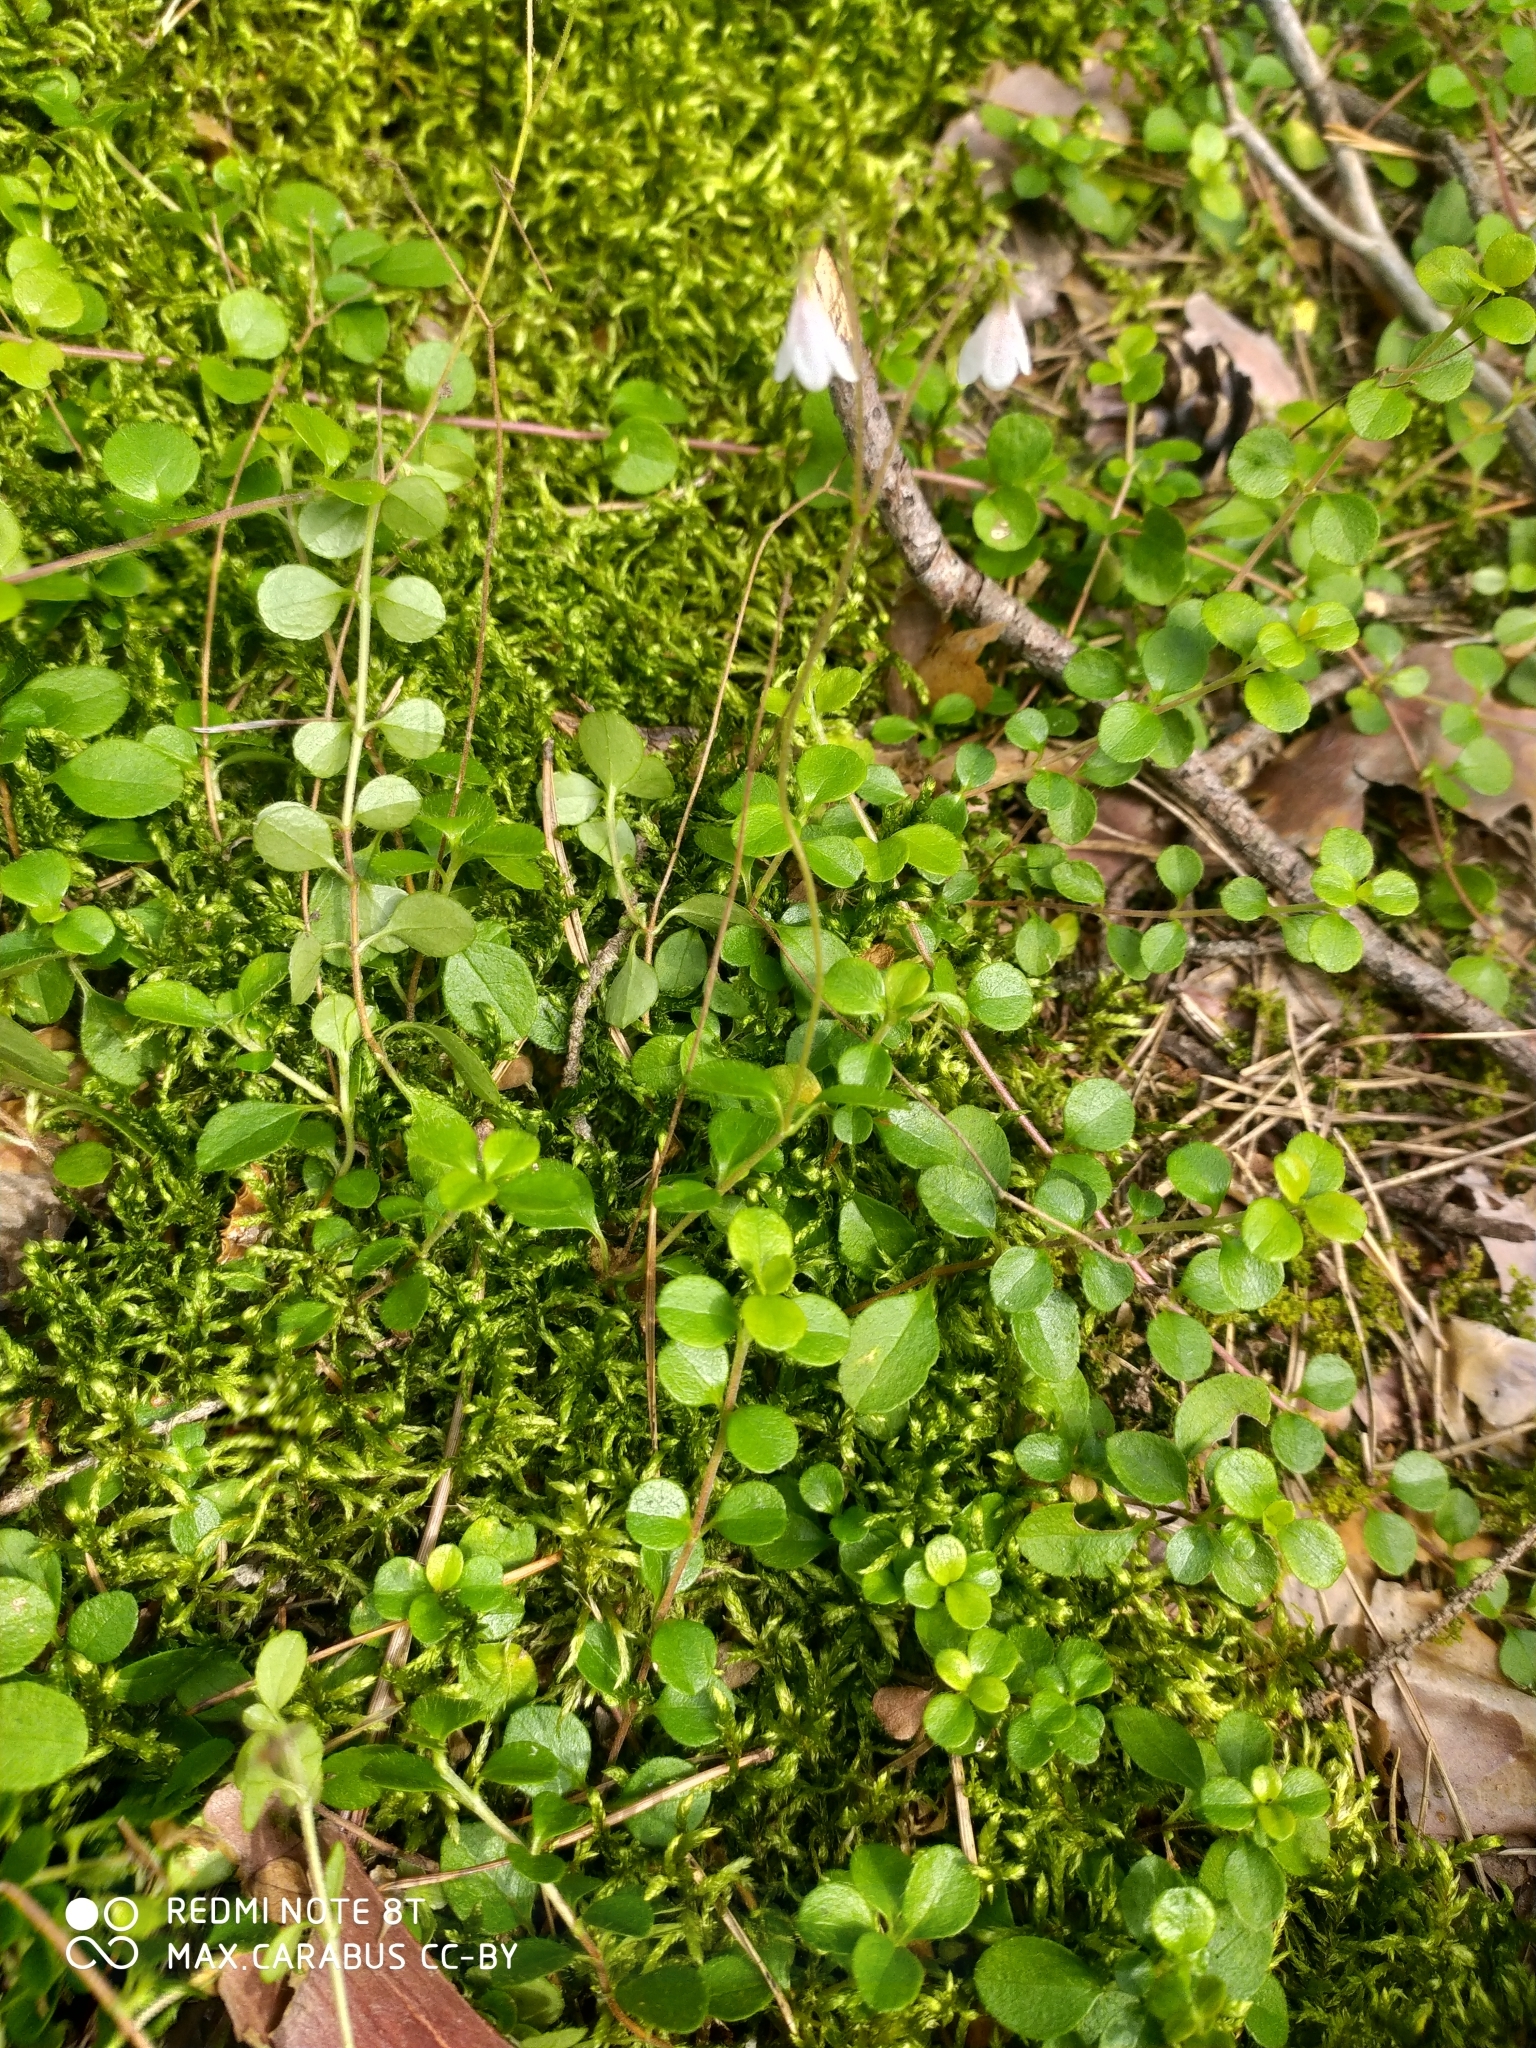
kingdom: Plantae
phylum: Tracheophyta
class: Magnoliopsida
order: Dipsacales
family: Caprifoliaceae
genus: Linnaea
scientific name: Linnaea borealis
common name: Twinflower
